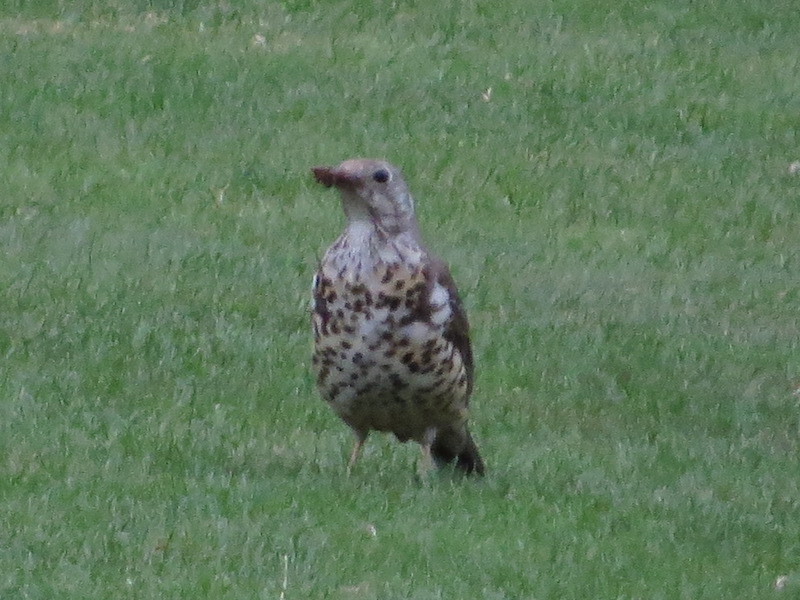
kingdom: Animalia
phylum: Chordata
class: Aves
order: Passeriformes
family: Turdidae
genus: Turdus
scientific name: Turdus viscivorus
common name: Mistle thrush
